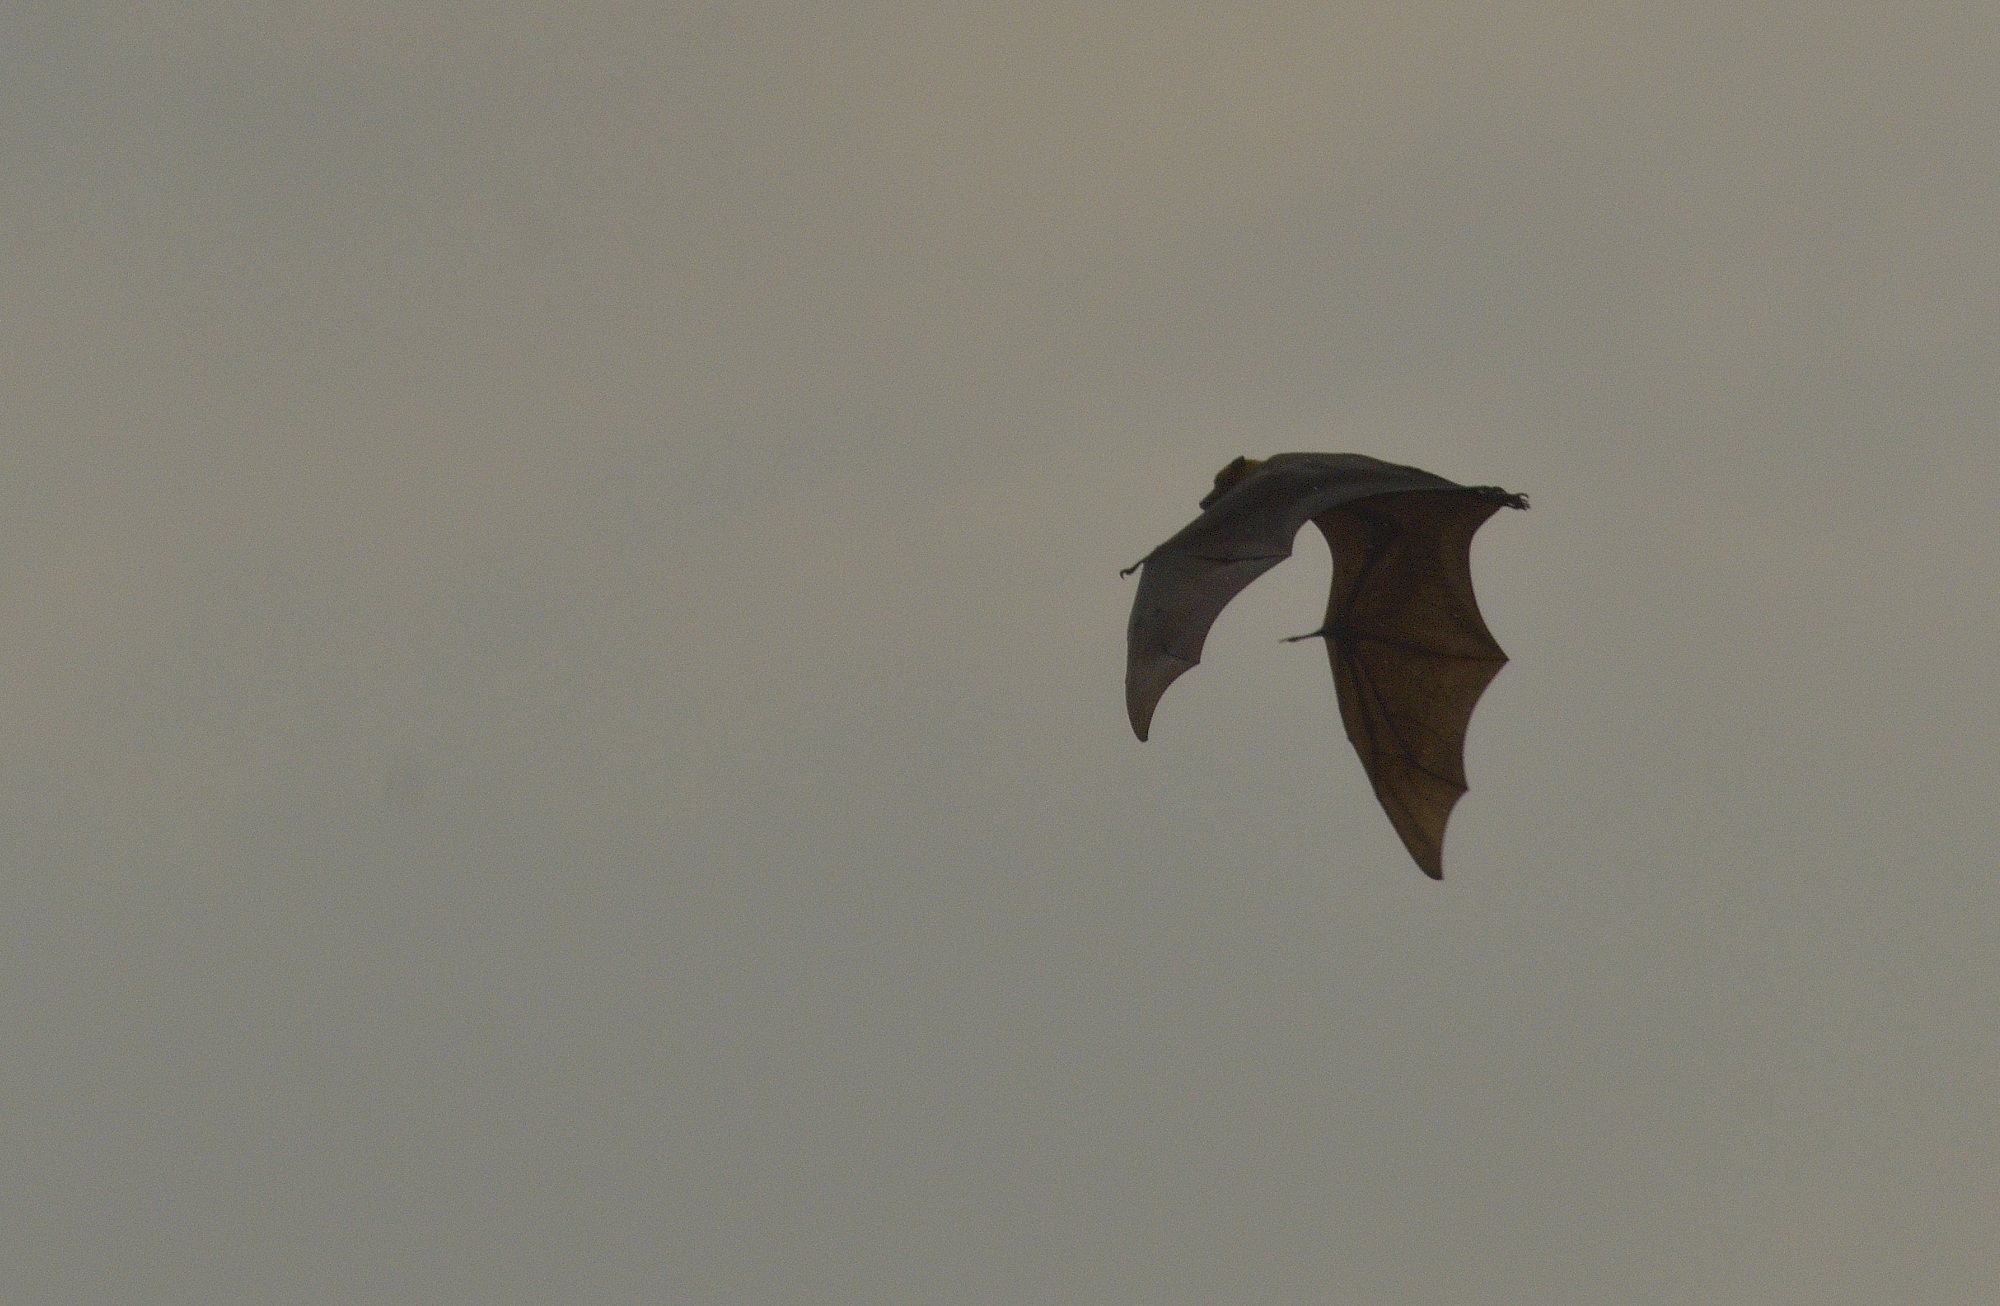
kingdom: Animalia
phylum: Chordata
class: Mammalia
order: Chiroptera
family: Pteropodidae
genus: Pteropus
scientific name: Pteropus vampyrus
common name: Large flying fox
